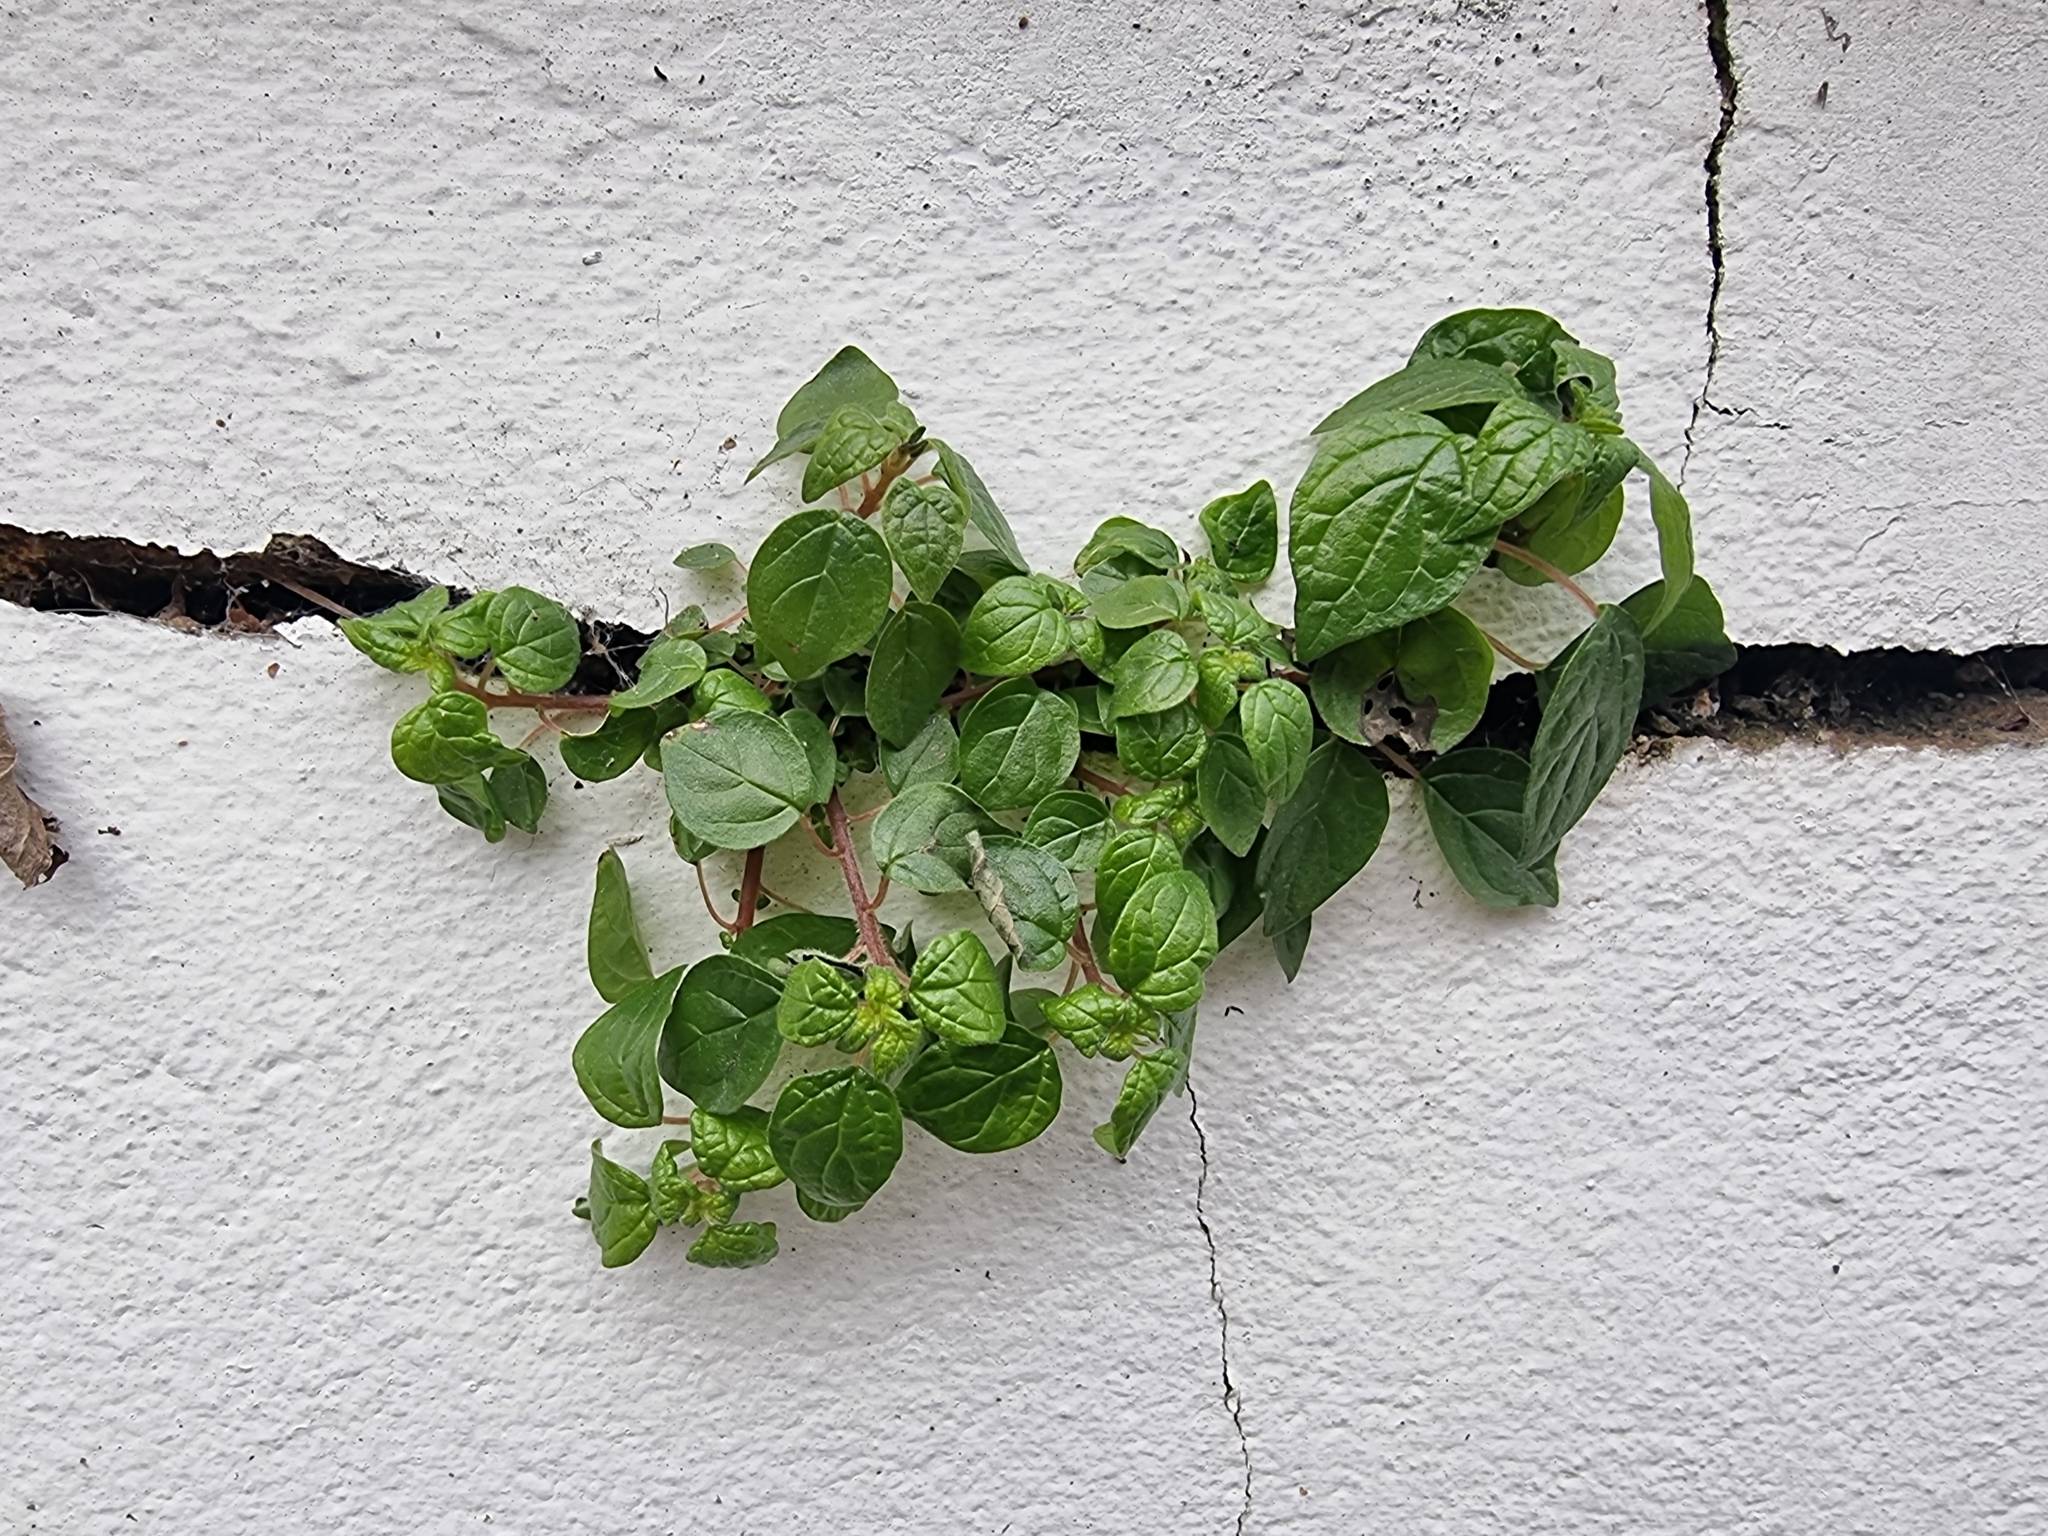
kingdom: Plantae
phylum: Tracheophyta
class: Magnoliopsida
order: Rosales
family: Urticaceae
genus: Parietaria
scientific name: Parietaria judaica
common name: Pellitory-of-the-wall
